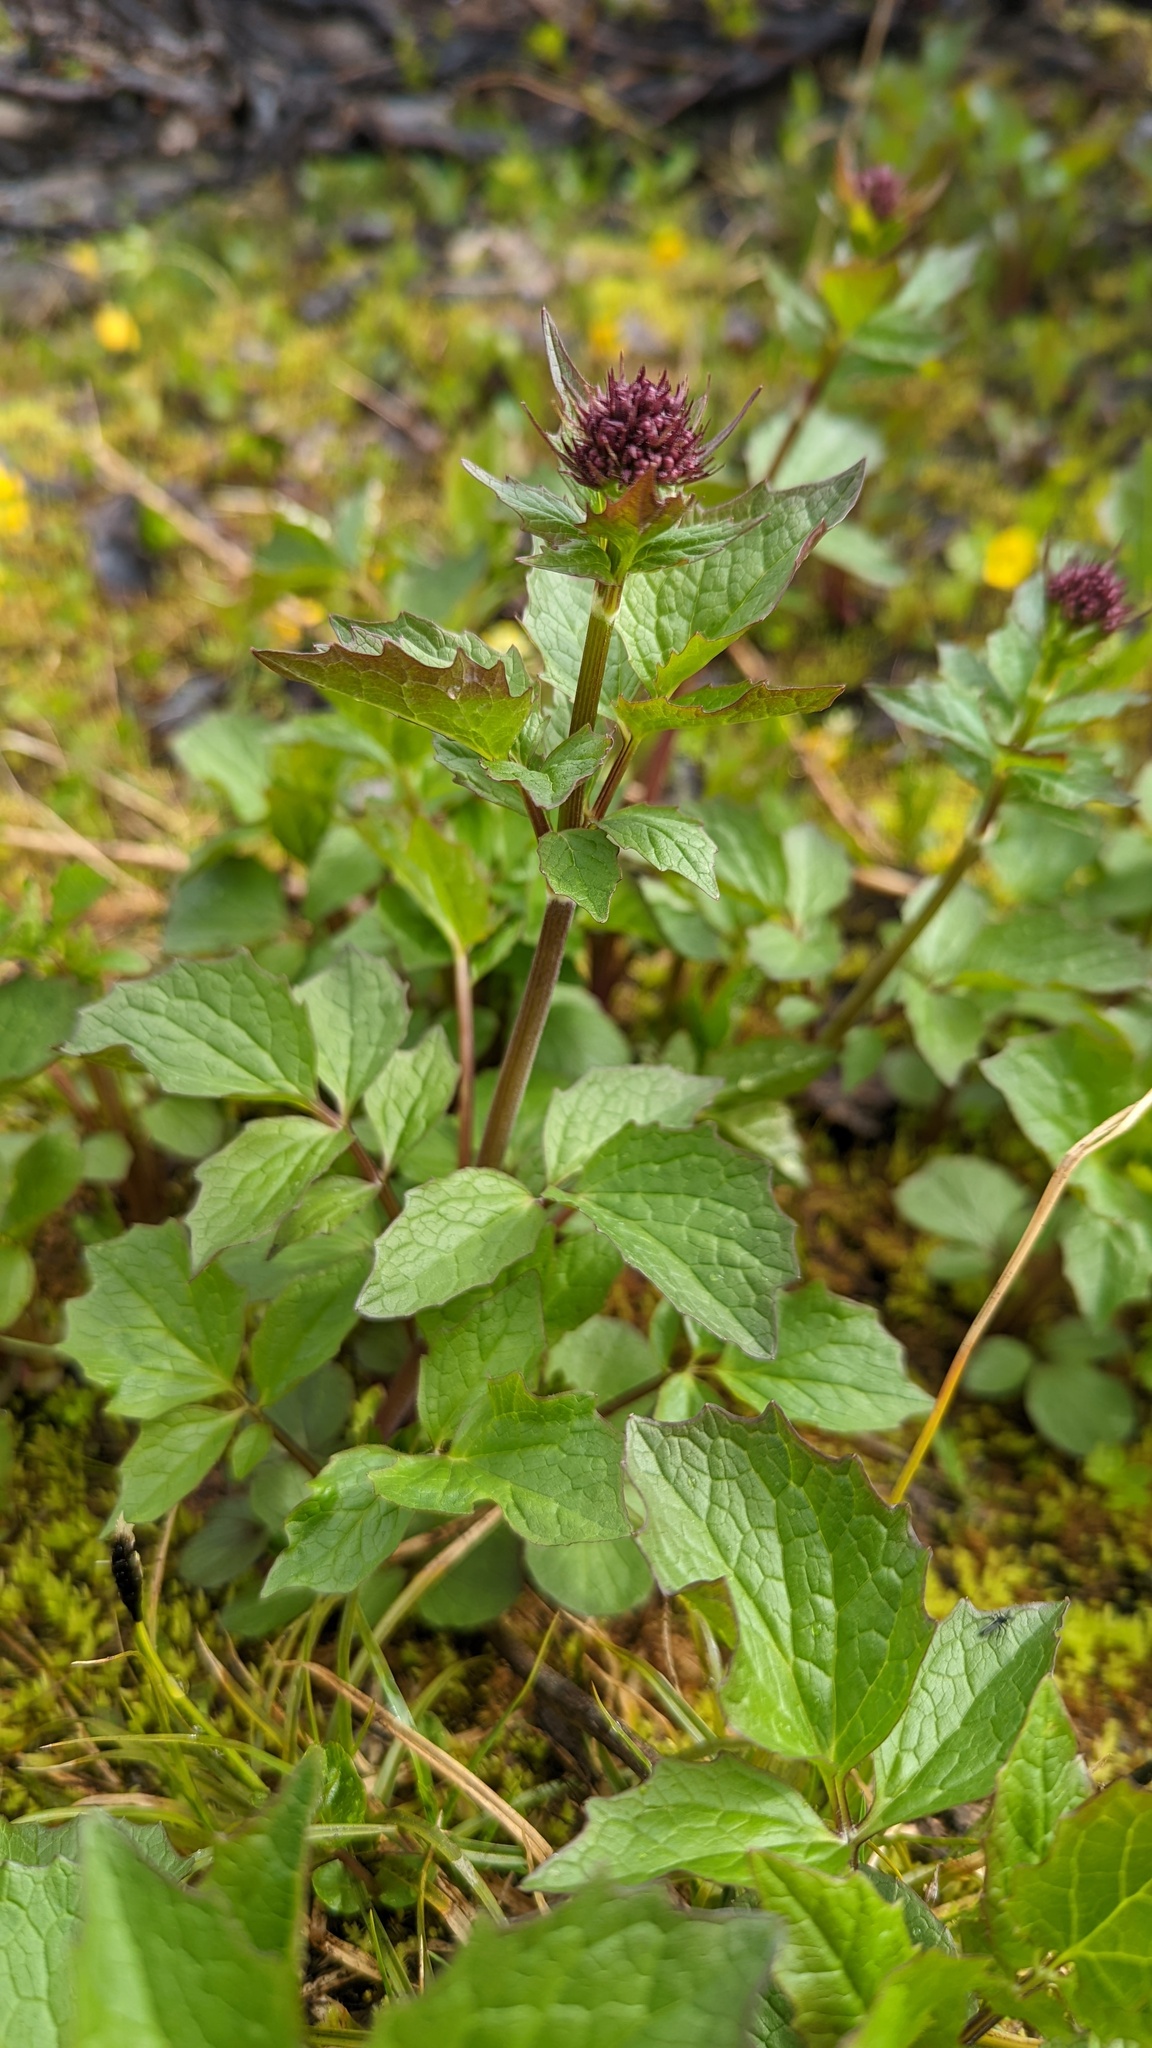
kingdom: Plantae
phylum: Tracheophyta
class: Magnoliopsida
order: Dipsacales
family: Caprifoliaceae
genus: Valeriana
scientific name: Valeriana sitchensis
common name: Pacific valerian
